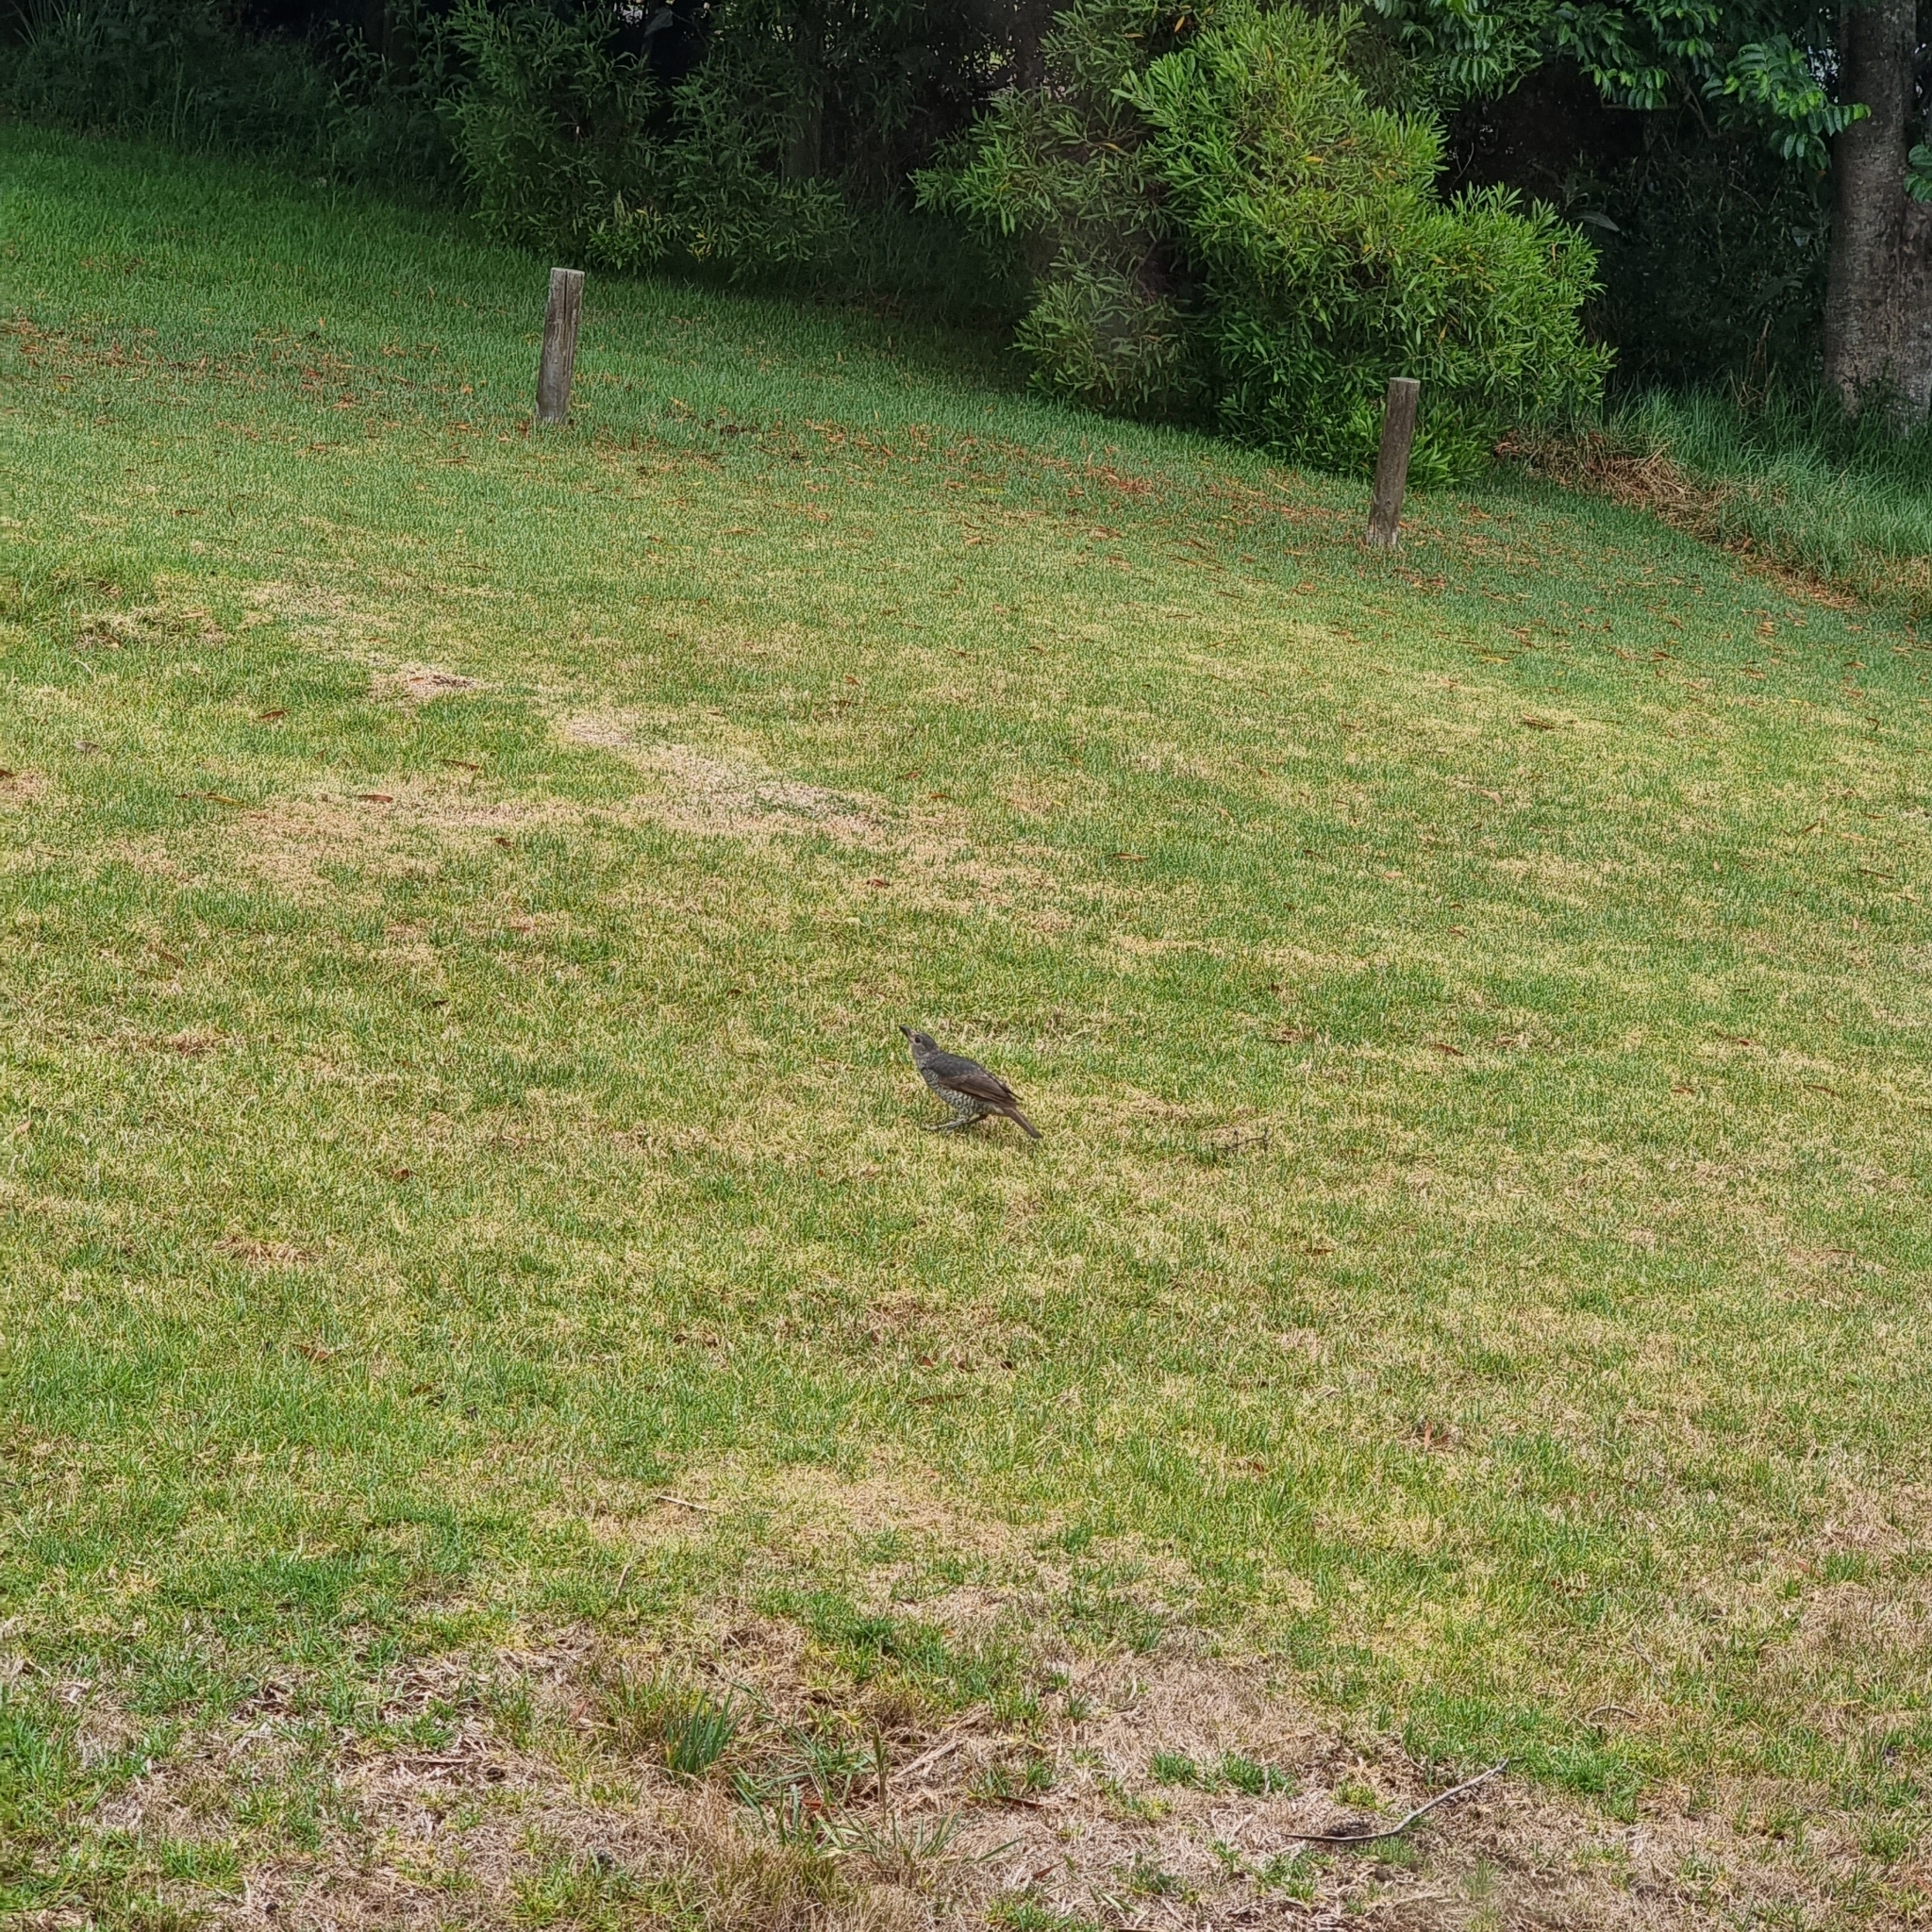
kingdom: Animalia
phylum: Chordata
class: Aves
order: Passeriformes
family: Ptilonorhynchidae
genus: Ptilonorhynchus
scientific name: Ptilonorhynchus violaceus
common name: Satin bowerbird
